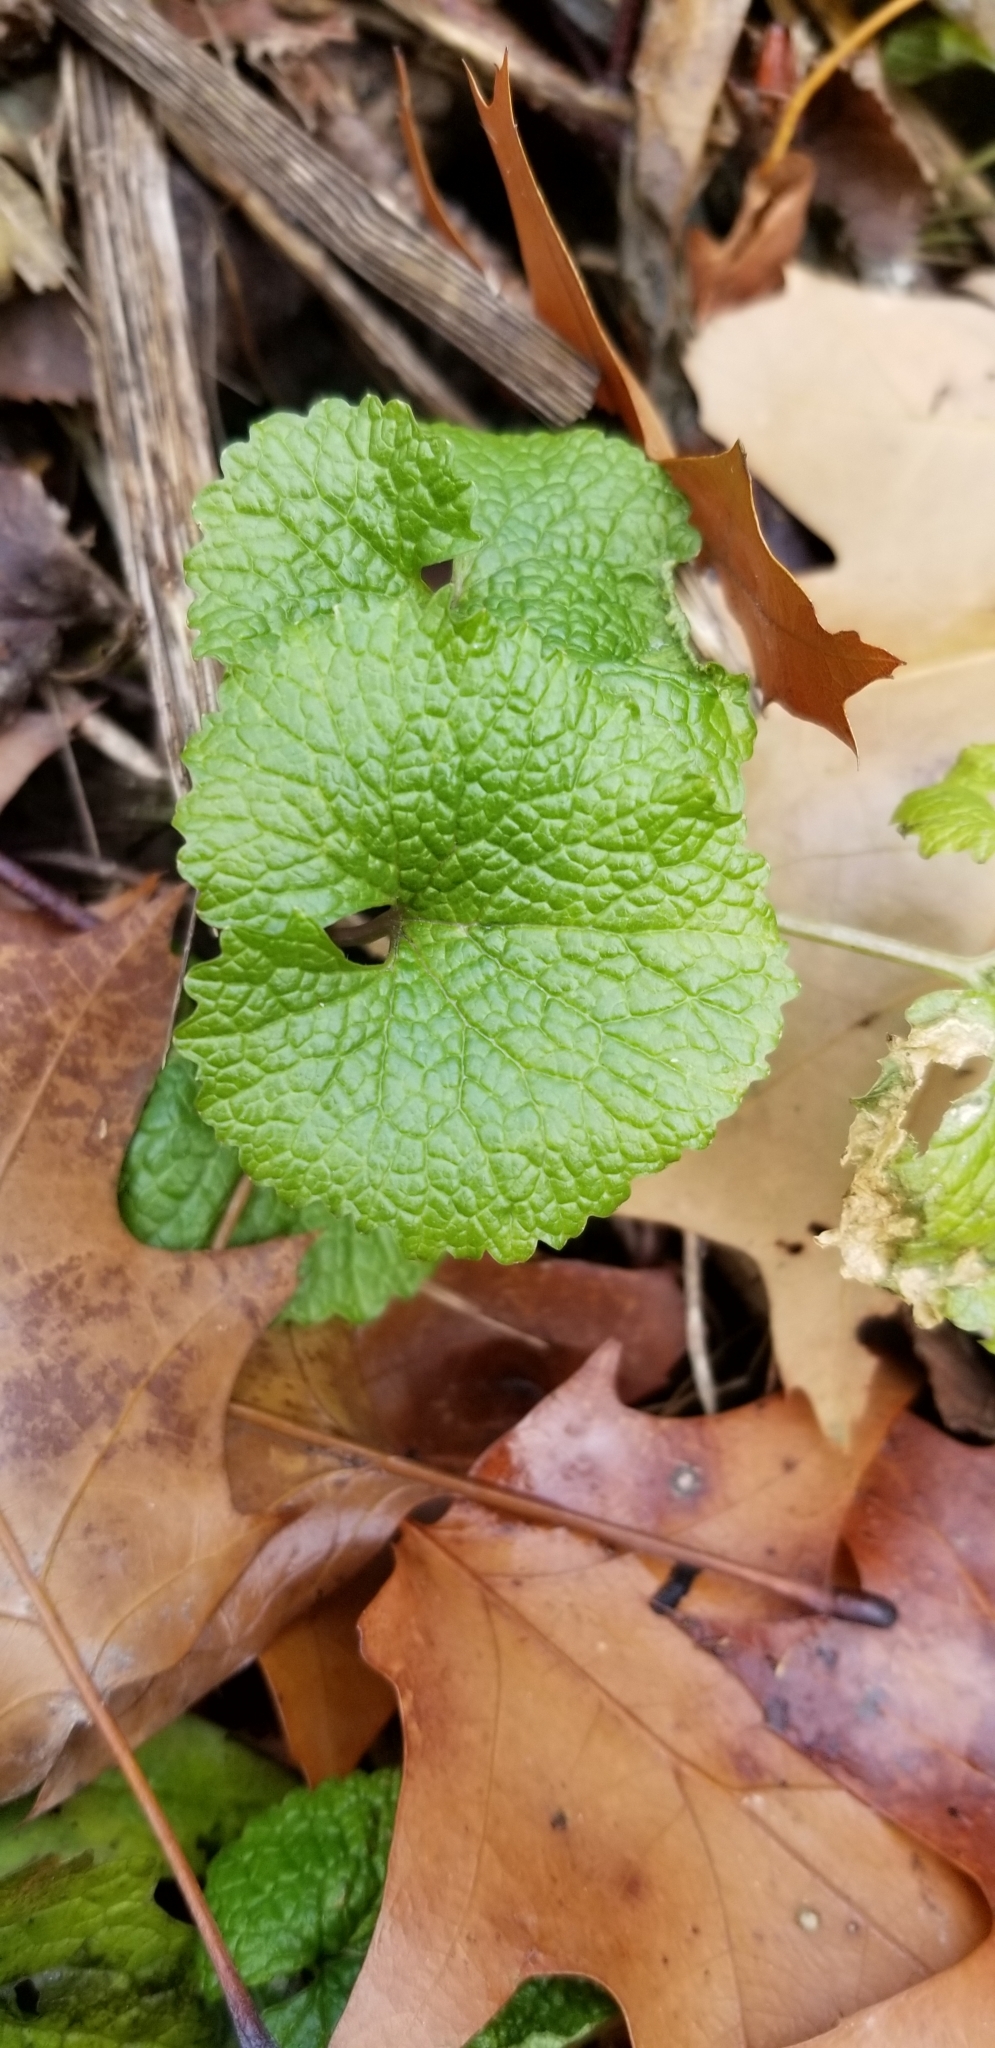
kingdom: Plantae
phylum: Tracheophyta
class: Magnoliopsida
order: Brassicales
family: Brassicaceae
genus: Alliaria
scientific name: Alliaria petiolata
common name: Garlic mustard
